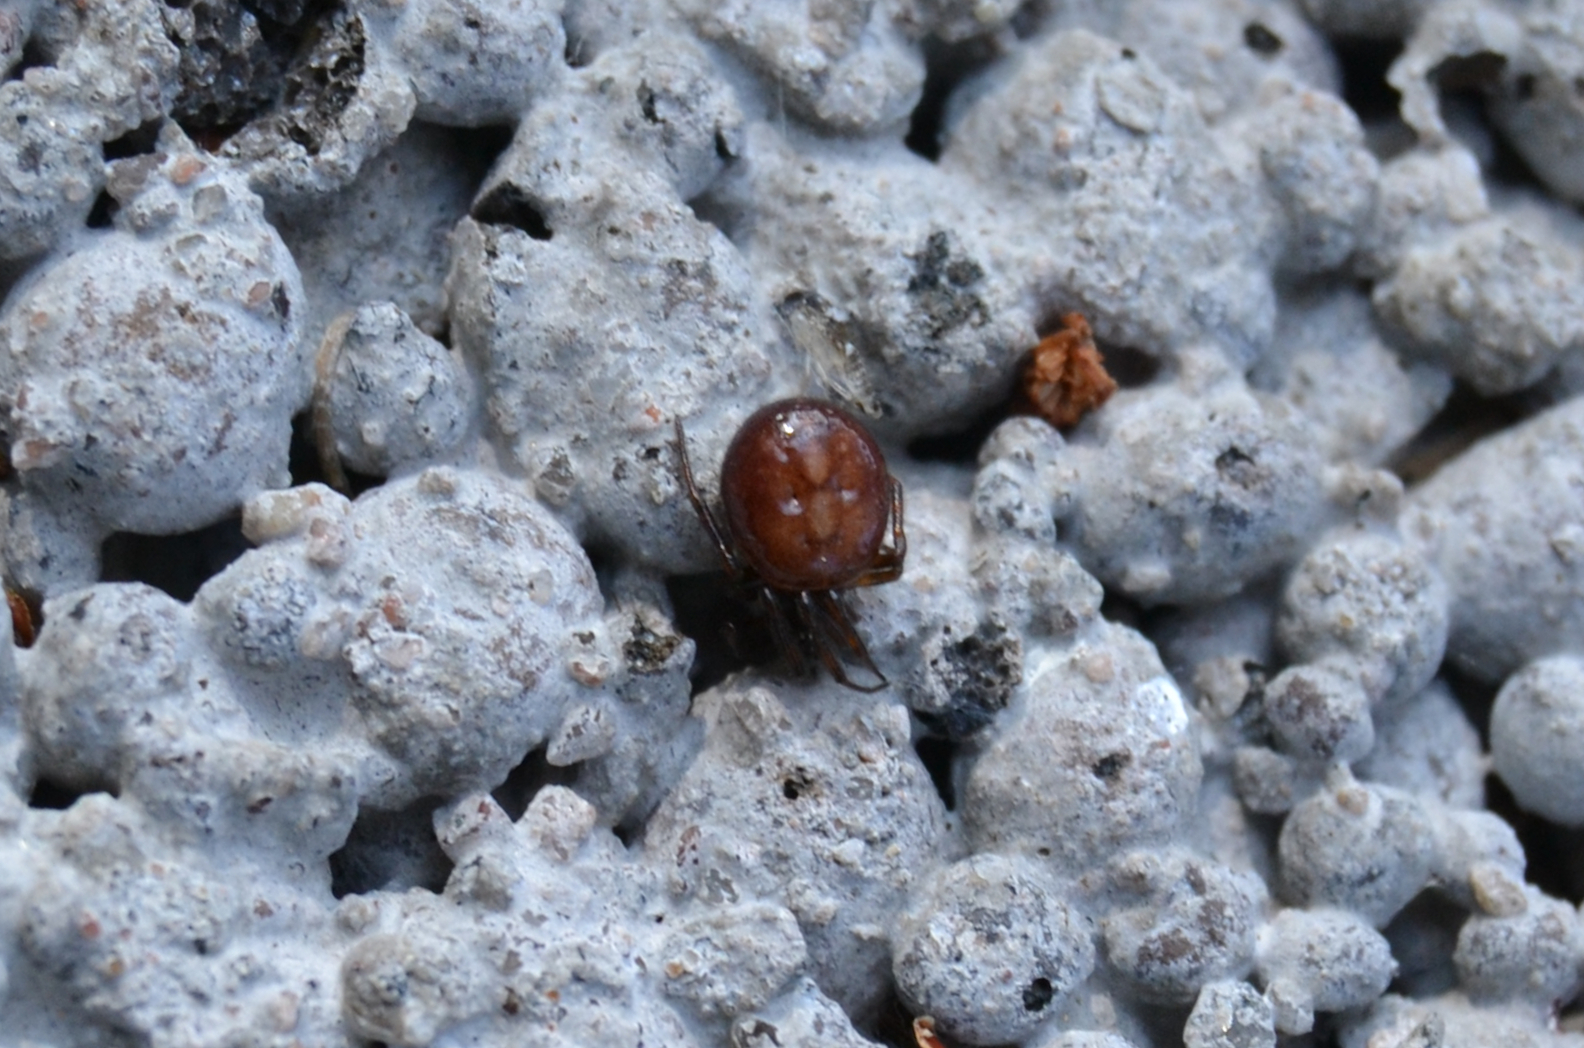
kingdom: Animalia
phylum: Arthropoda
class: Arachnida
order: Araneae
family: Theridiidae
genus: Steatoda
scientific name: Steatoda bipunctata
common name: False widow
